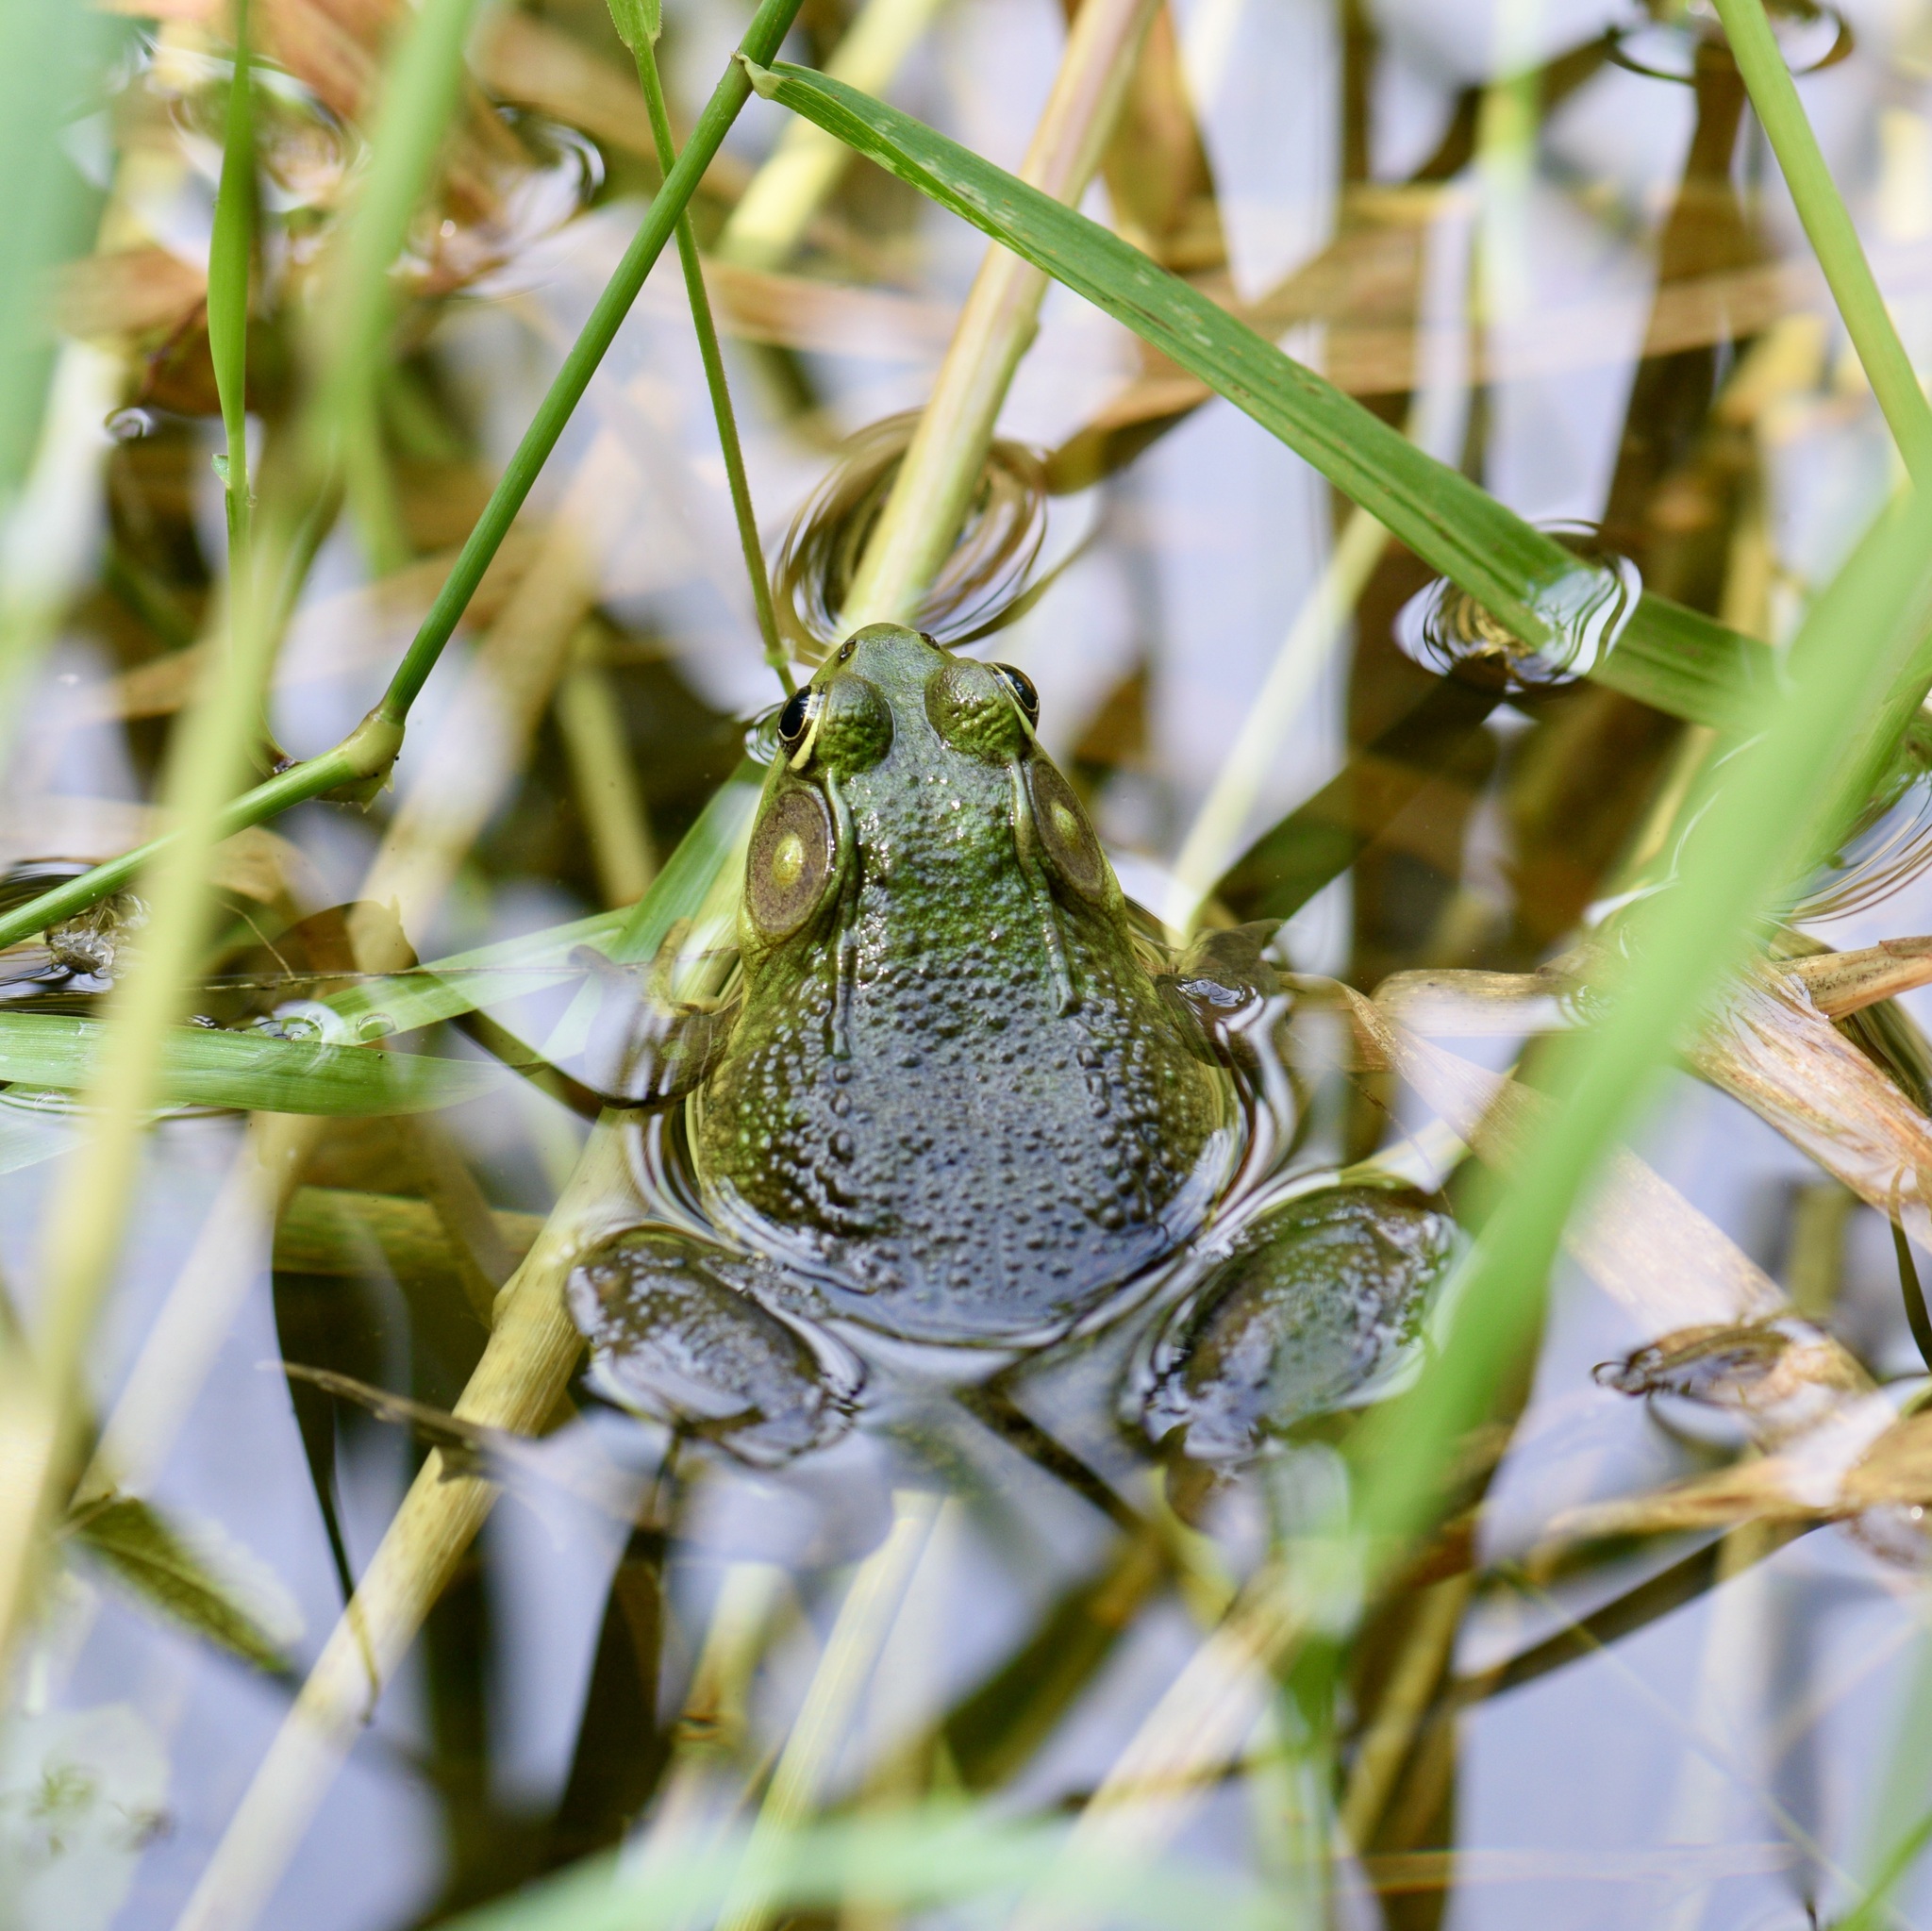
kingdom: Animalia
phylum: Chordata
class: Amphibia
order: Anura
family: Ranidae
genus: Lithobates
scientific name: Lithobates clamitans
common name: Green frog
